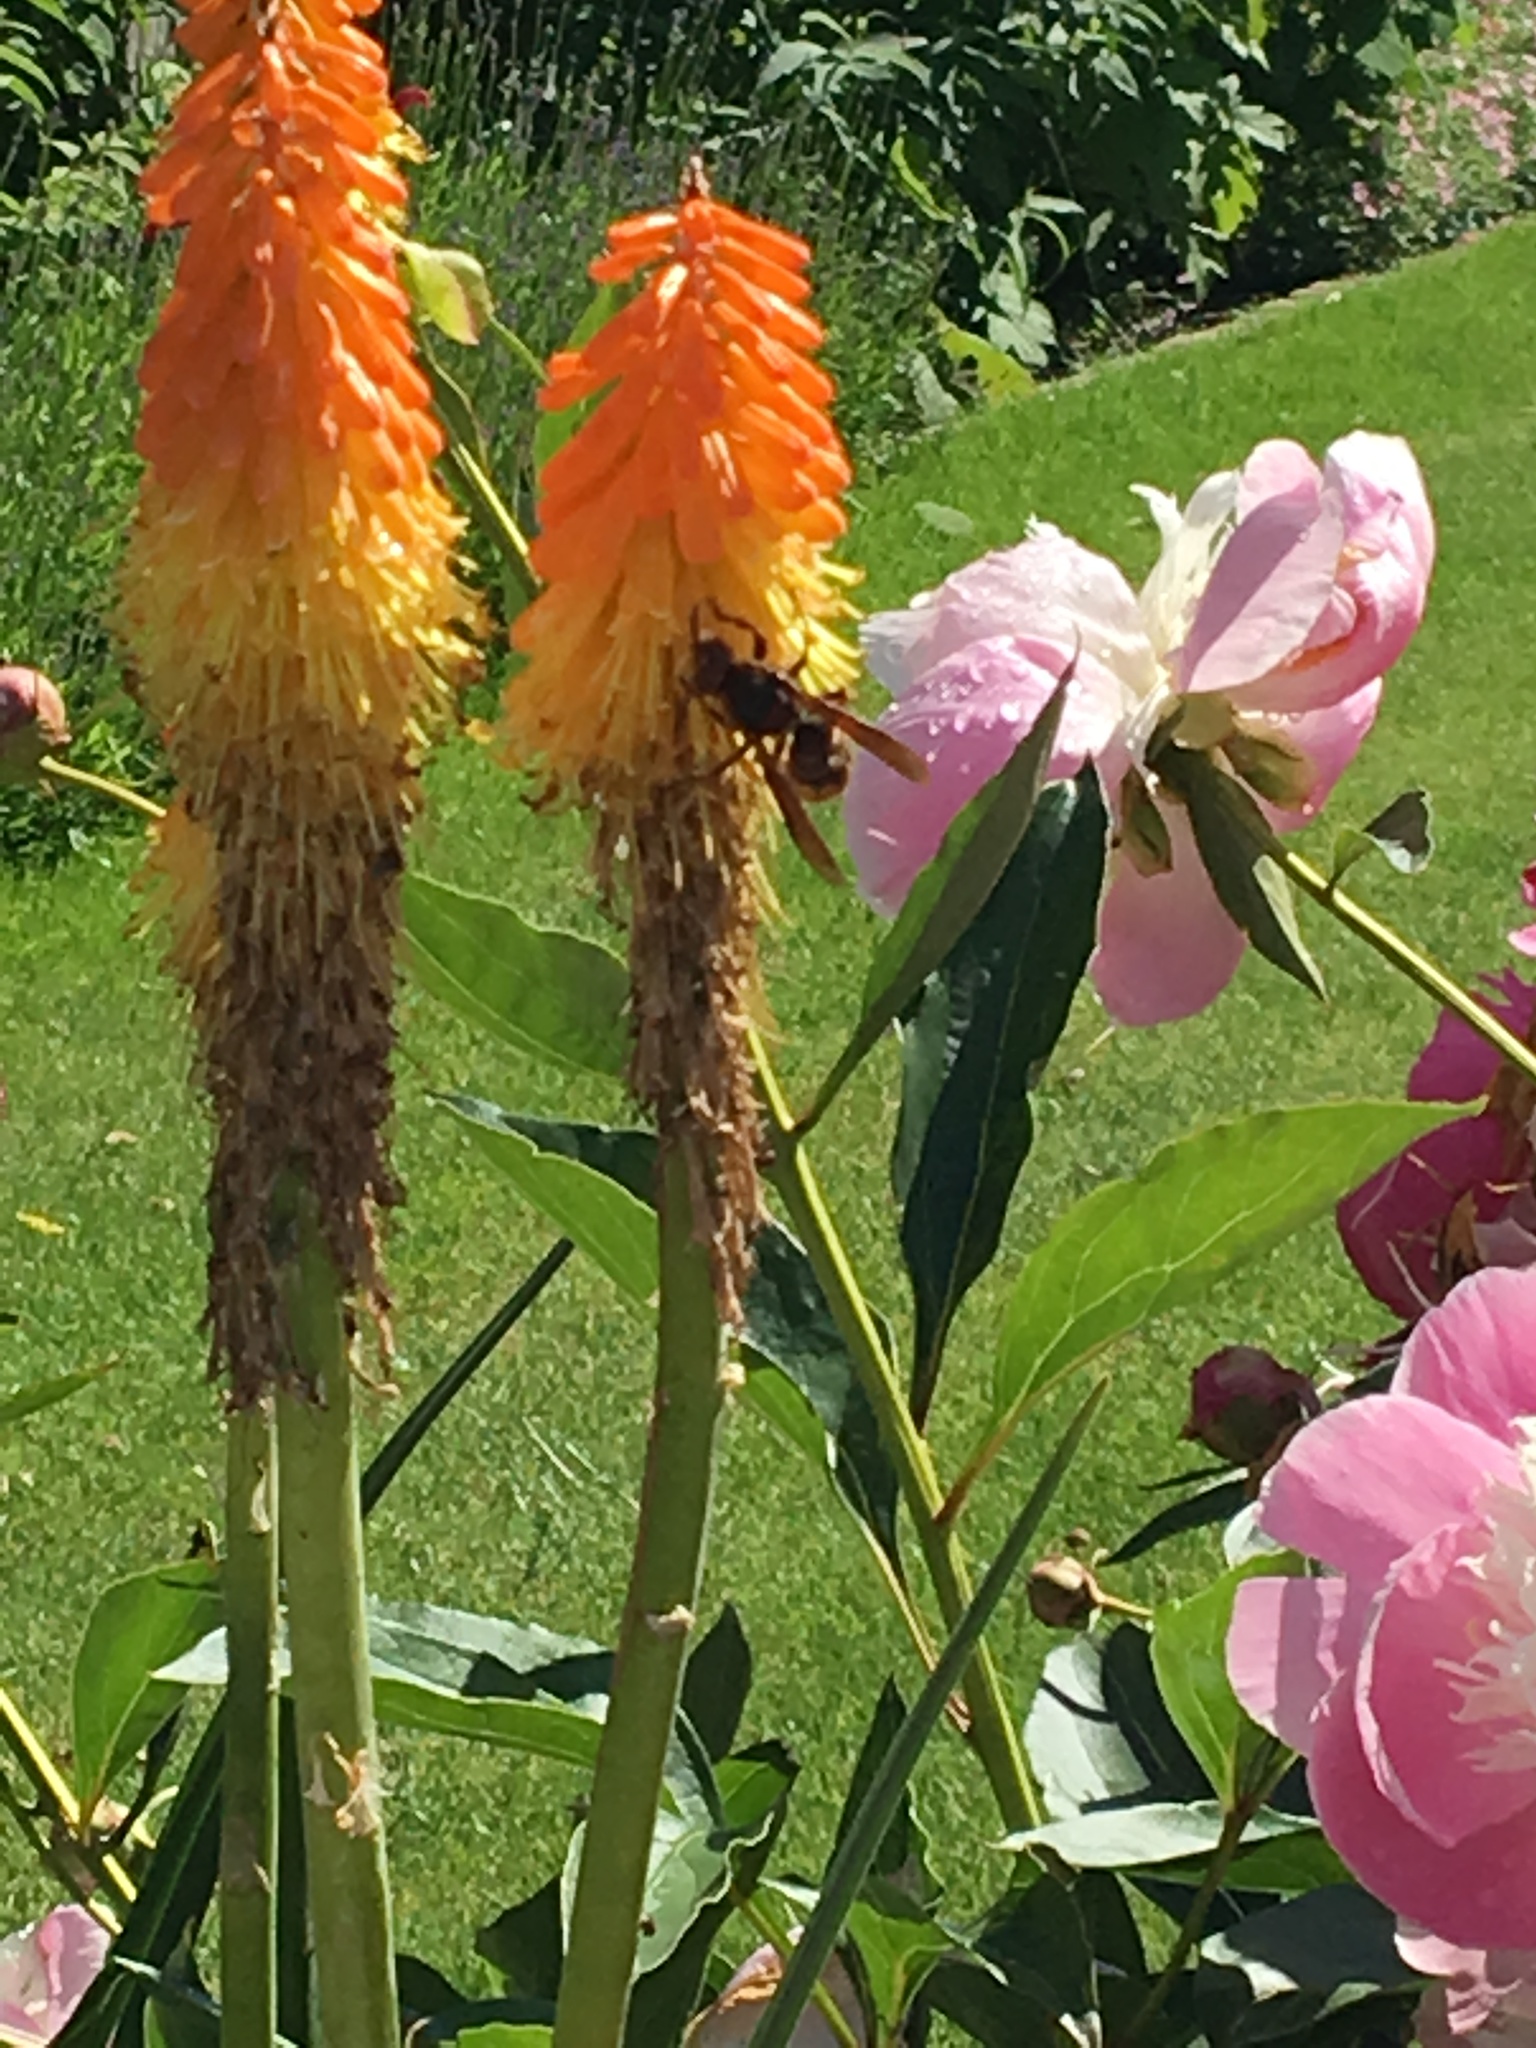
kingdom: Animalia
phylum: Arthropoda
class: Insecta
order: Hymenoptera
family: Vespidae
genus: Vespa
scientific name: Vespa crabro
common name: Hornet
